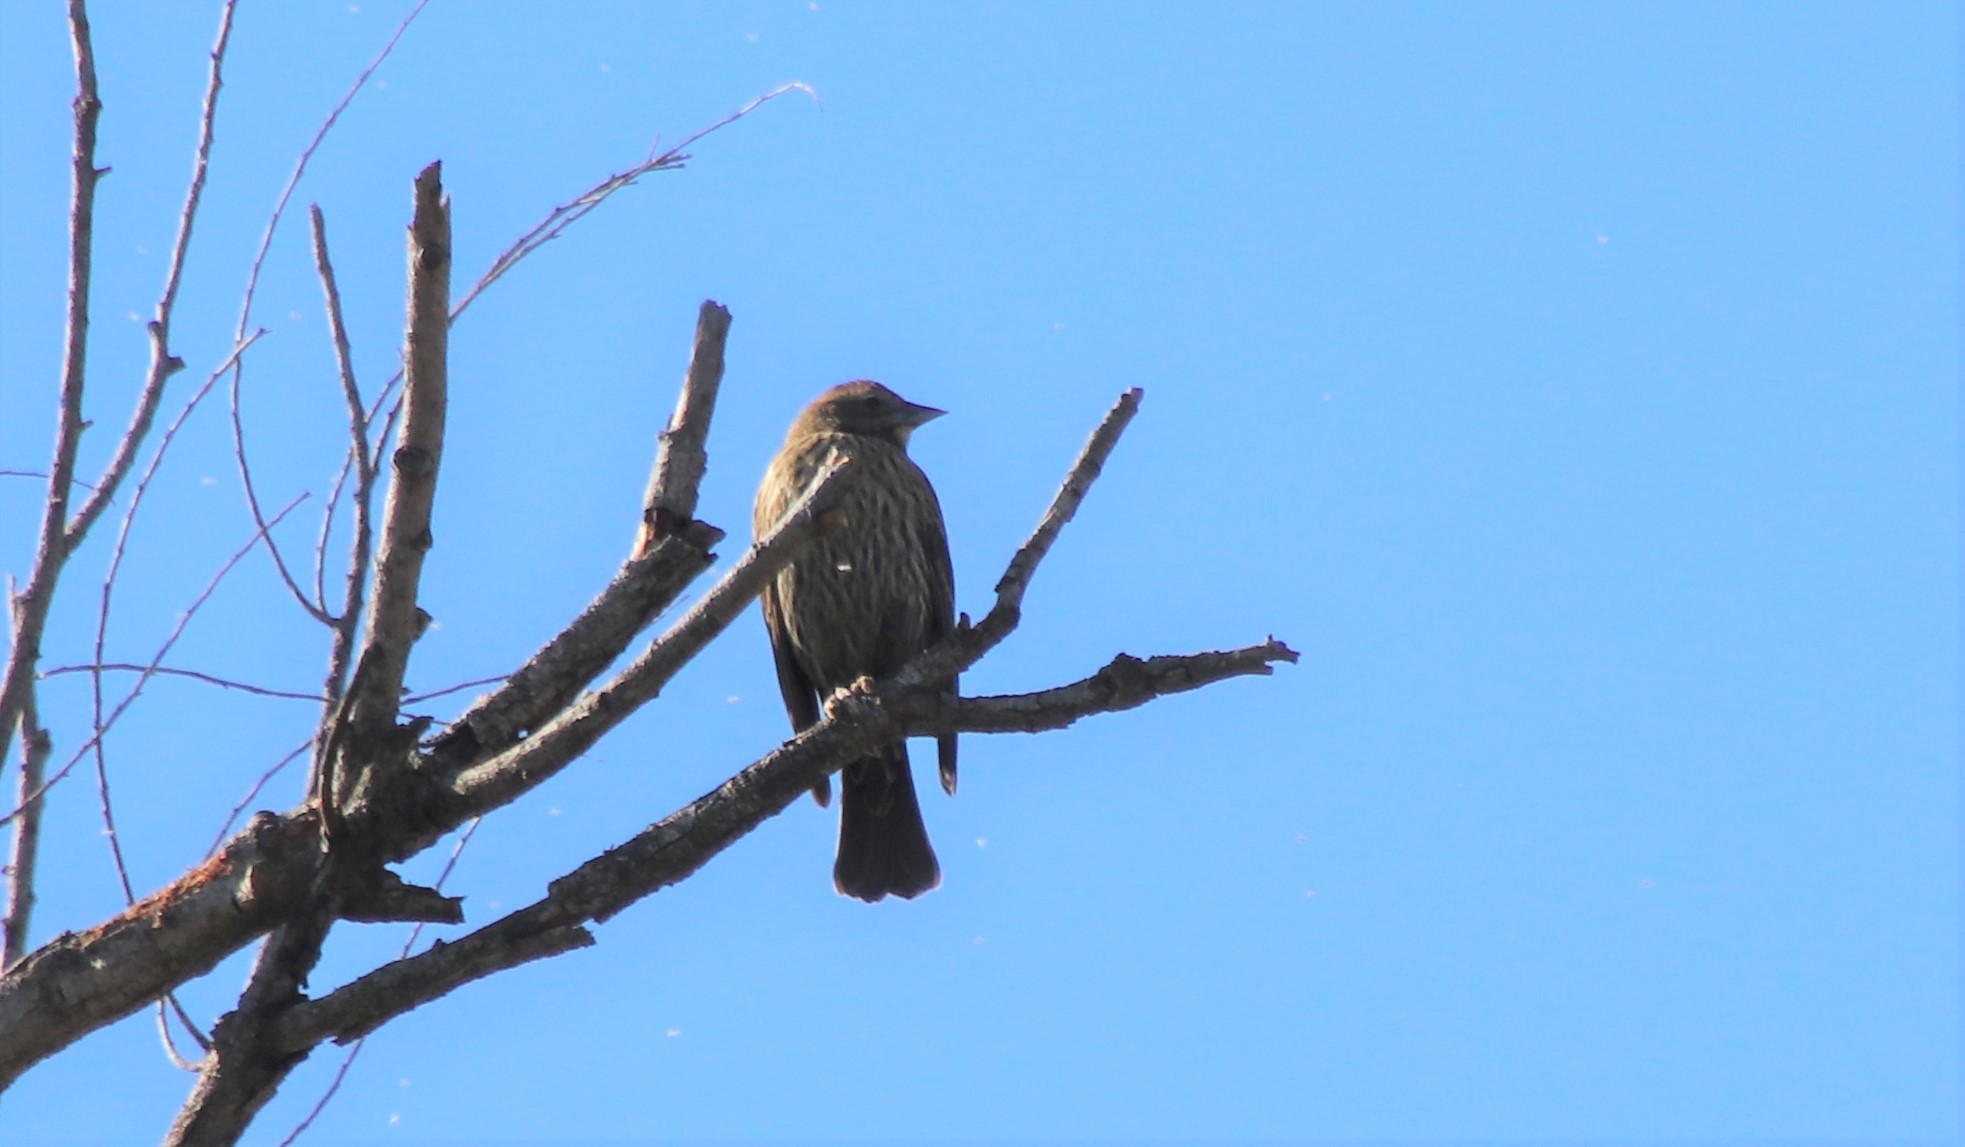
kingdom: Animalia
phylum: Chordata
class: Aves
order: Passeriformes
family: Icteridae
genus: Agelaius
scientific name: Agelaius phoeniceus
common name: Red-winged blackbird
